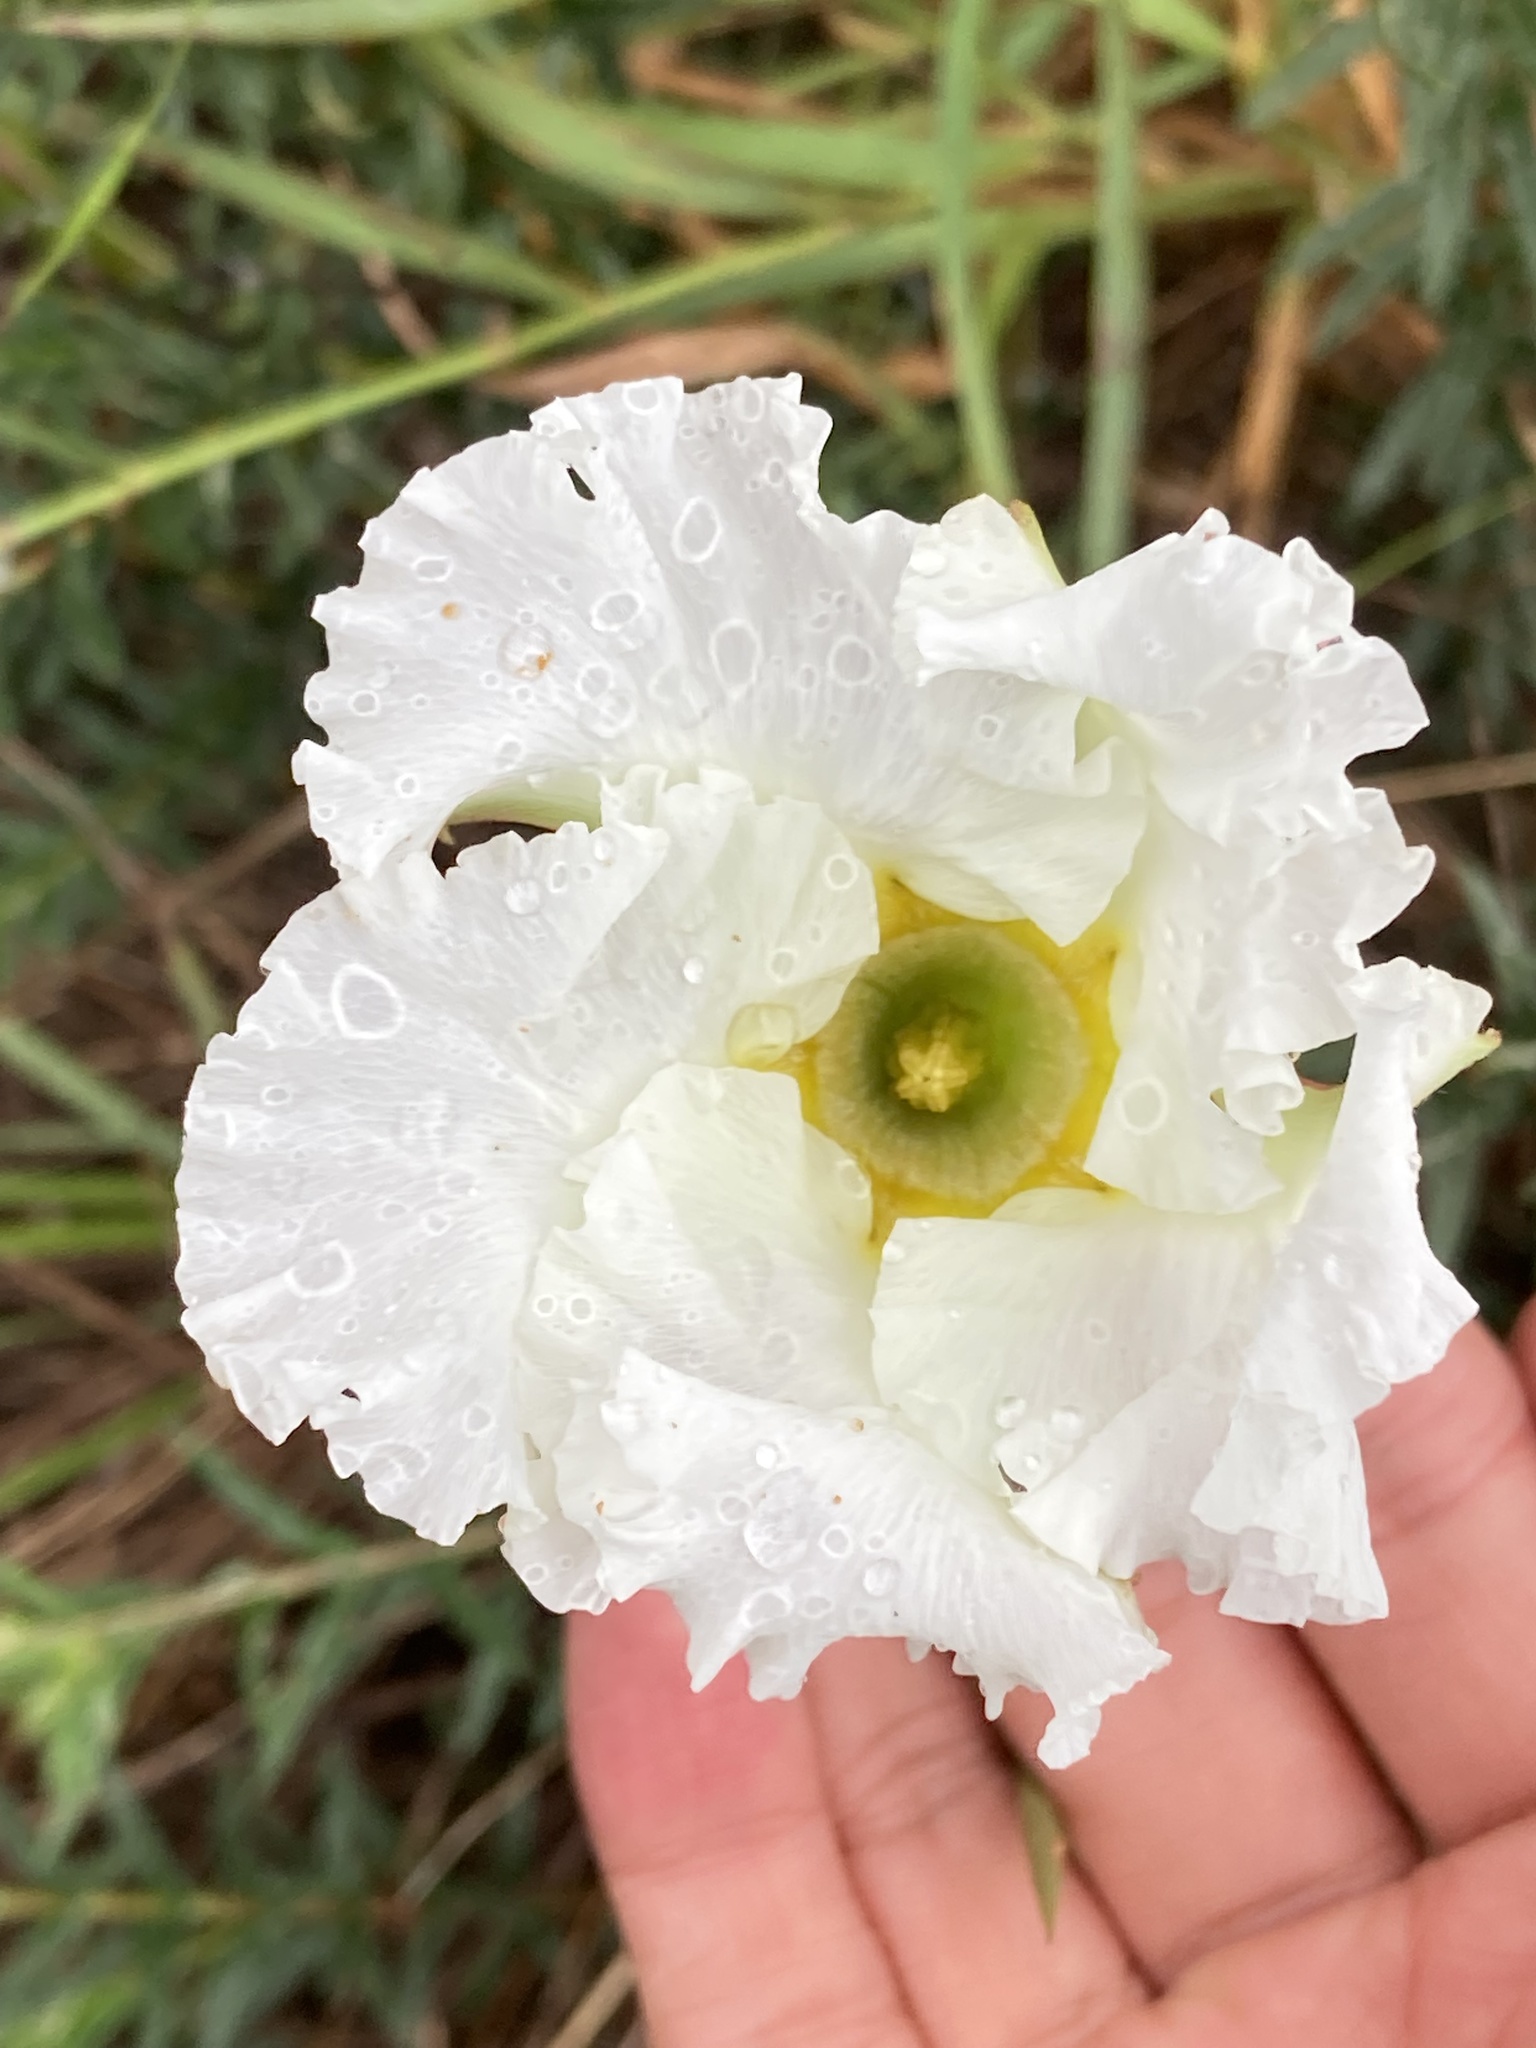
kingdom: Plantae
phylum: Tracheophyta
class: Magnoliopsida
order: Gentianales
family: Apocynaceae
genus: Mandevilla
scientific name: Mandevilla petraea
